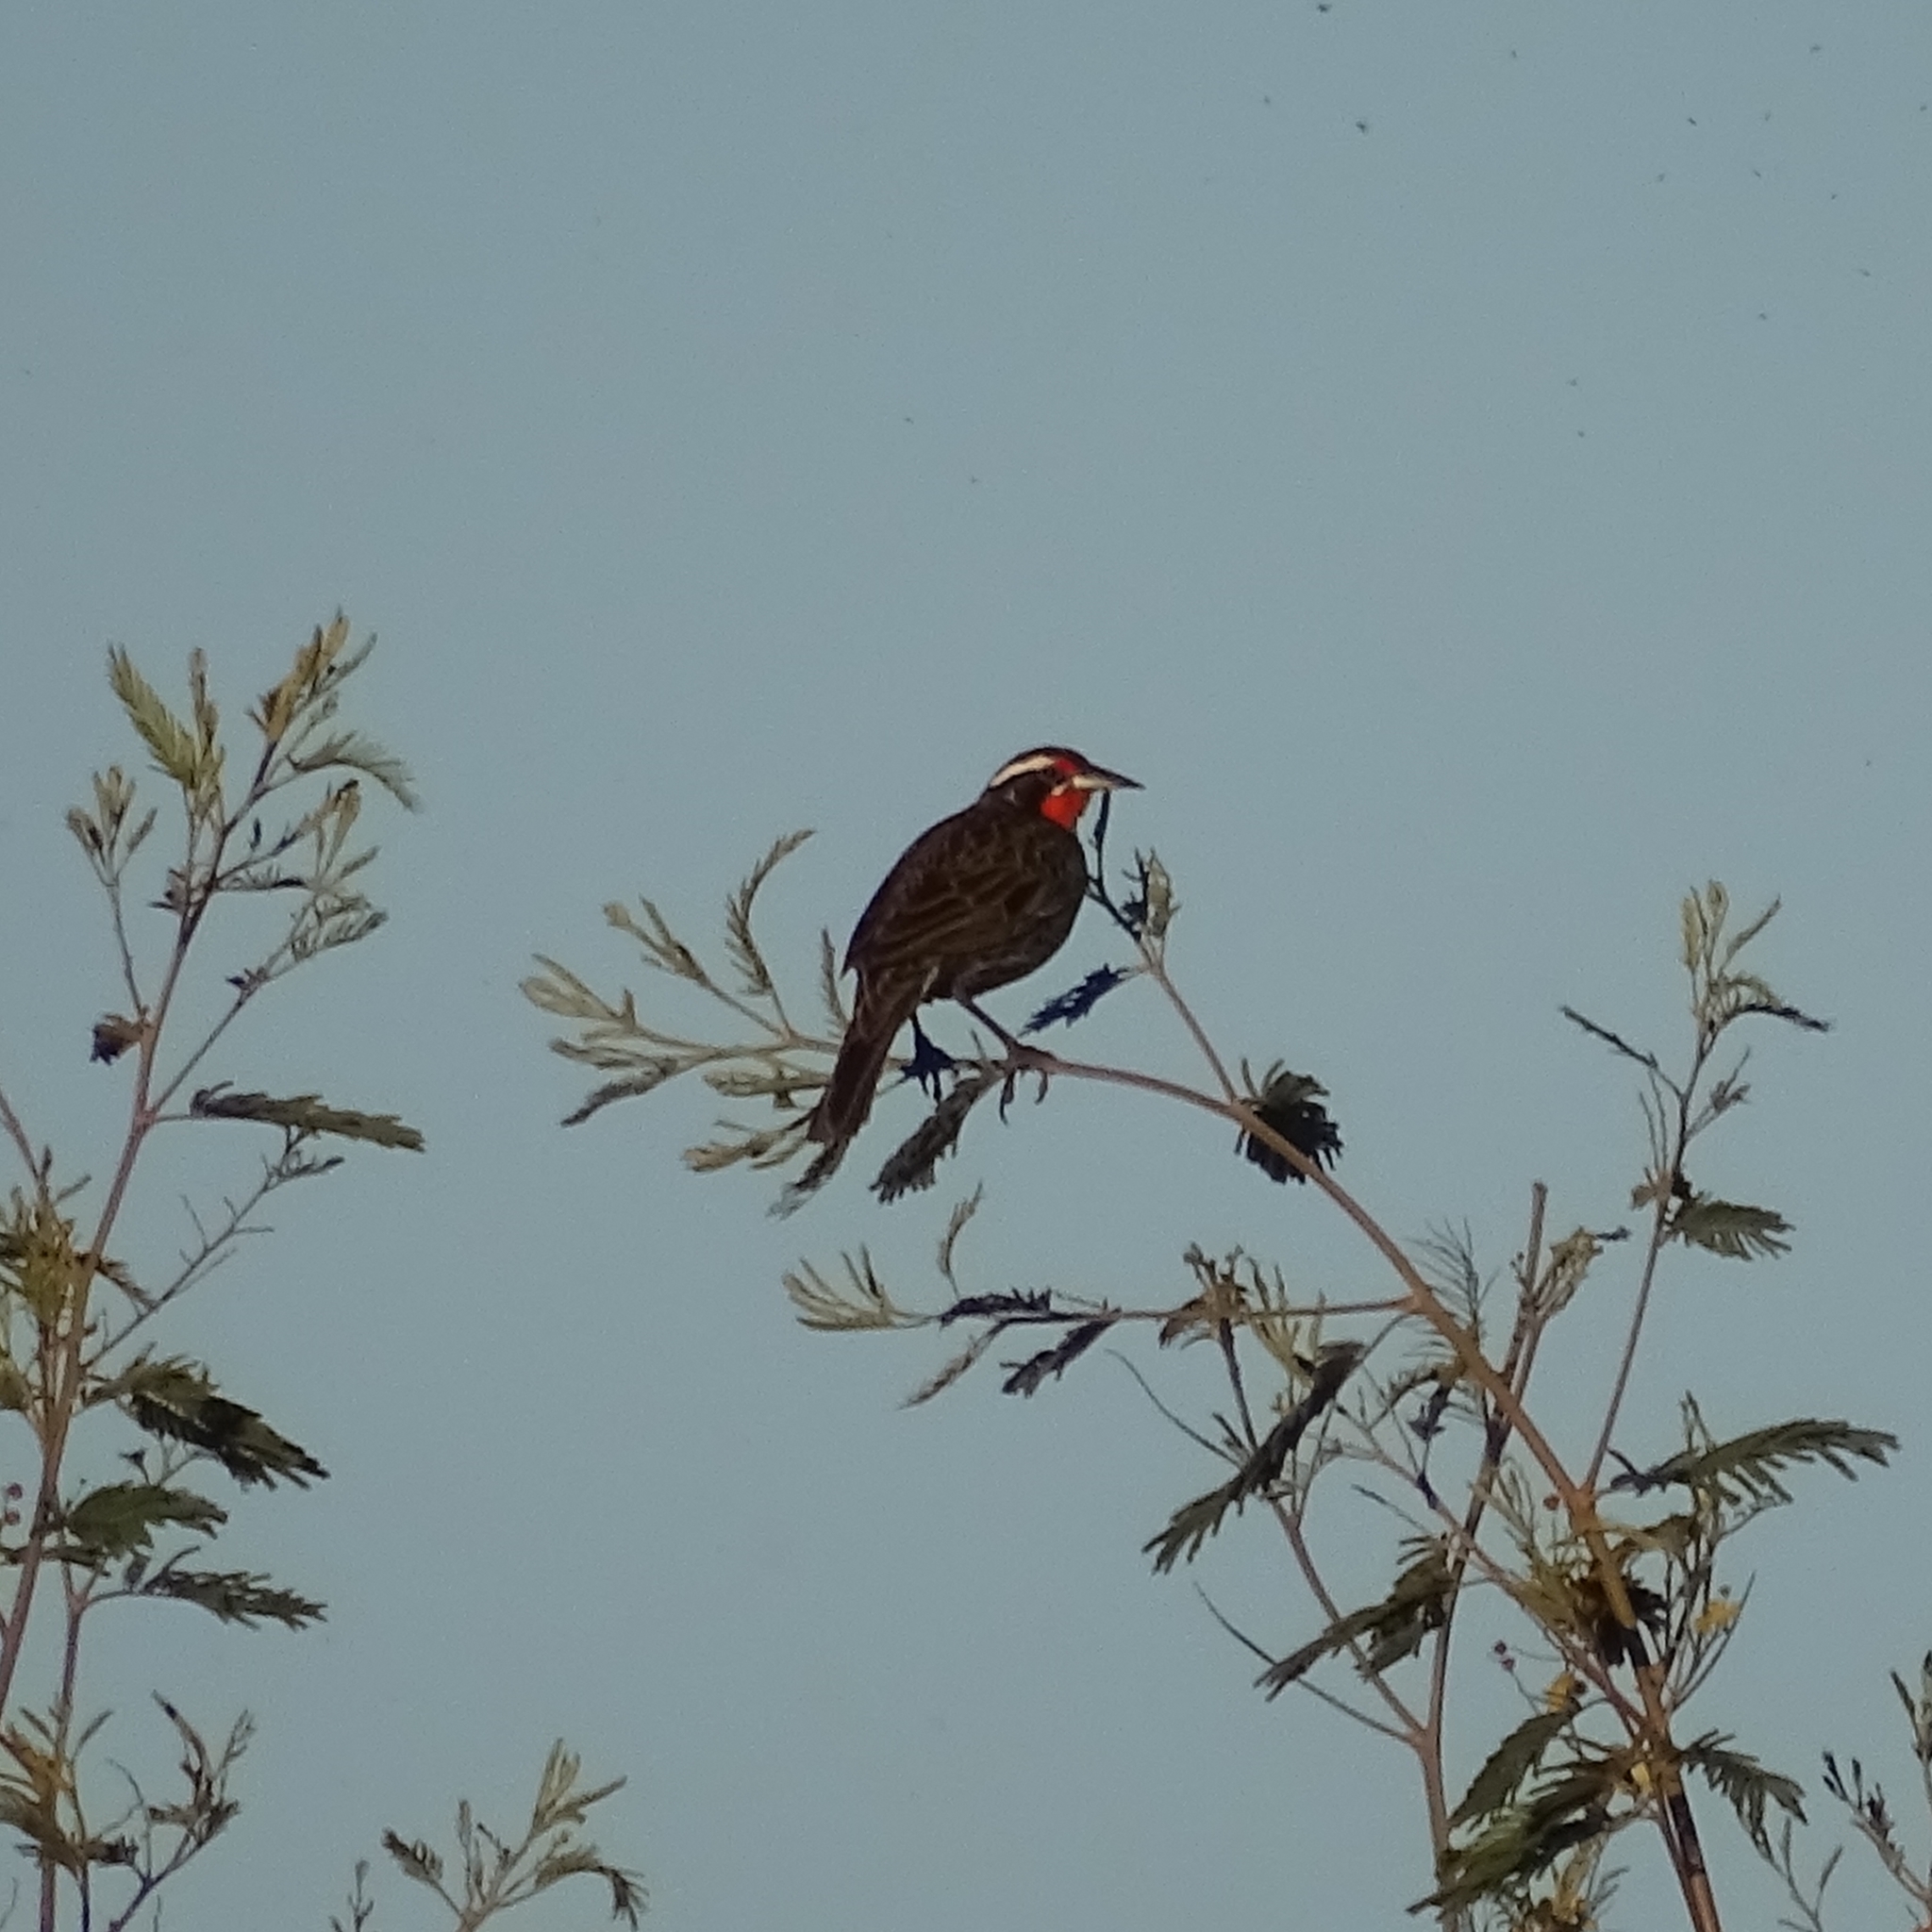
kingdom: Animalia
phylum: Chordata
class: Aves
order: Passeriformes
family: Icteridae
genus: Sturnella
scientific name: Sturnella loyca
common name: Long-tailed meadowlark
